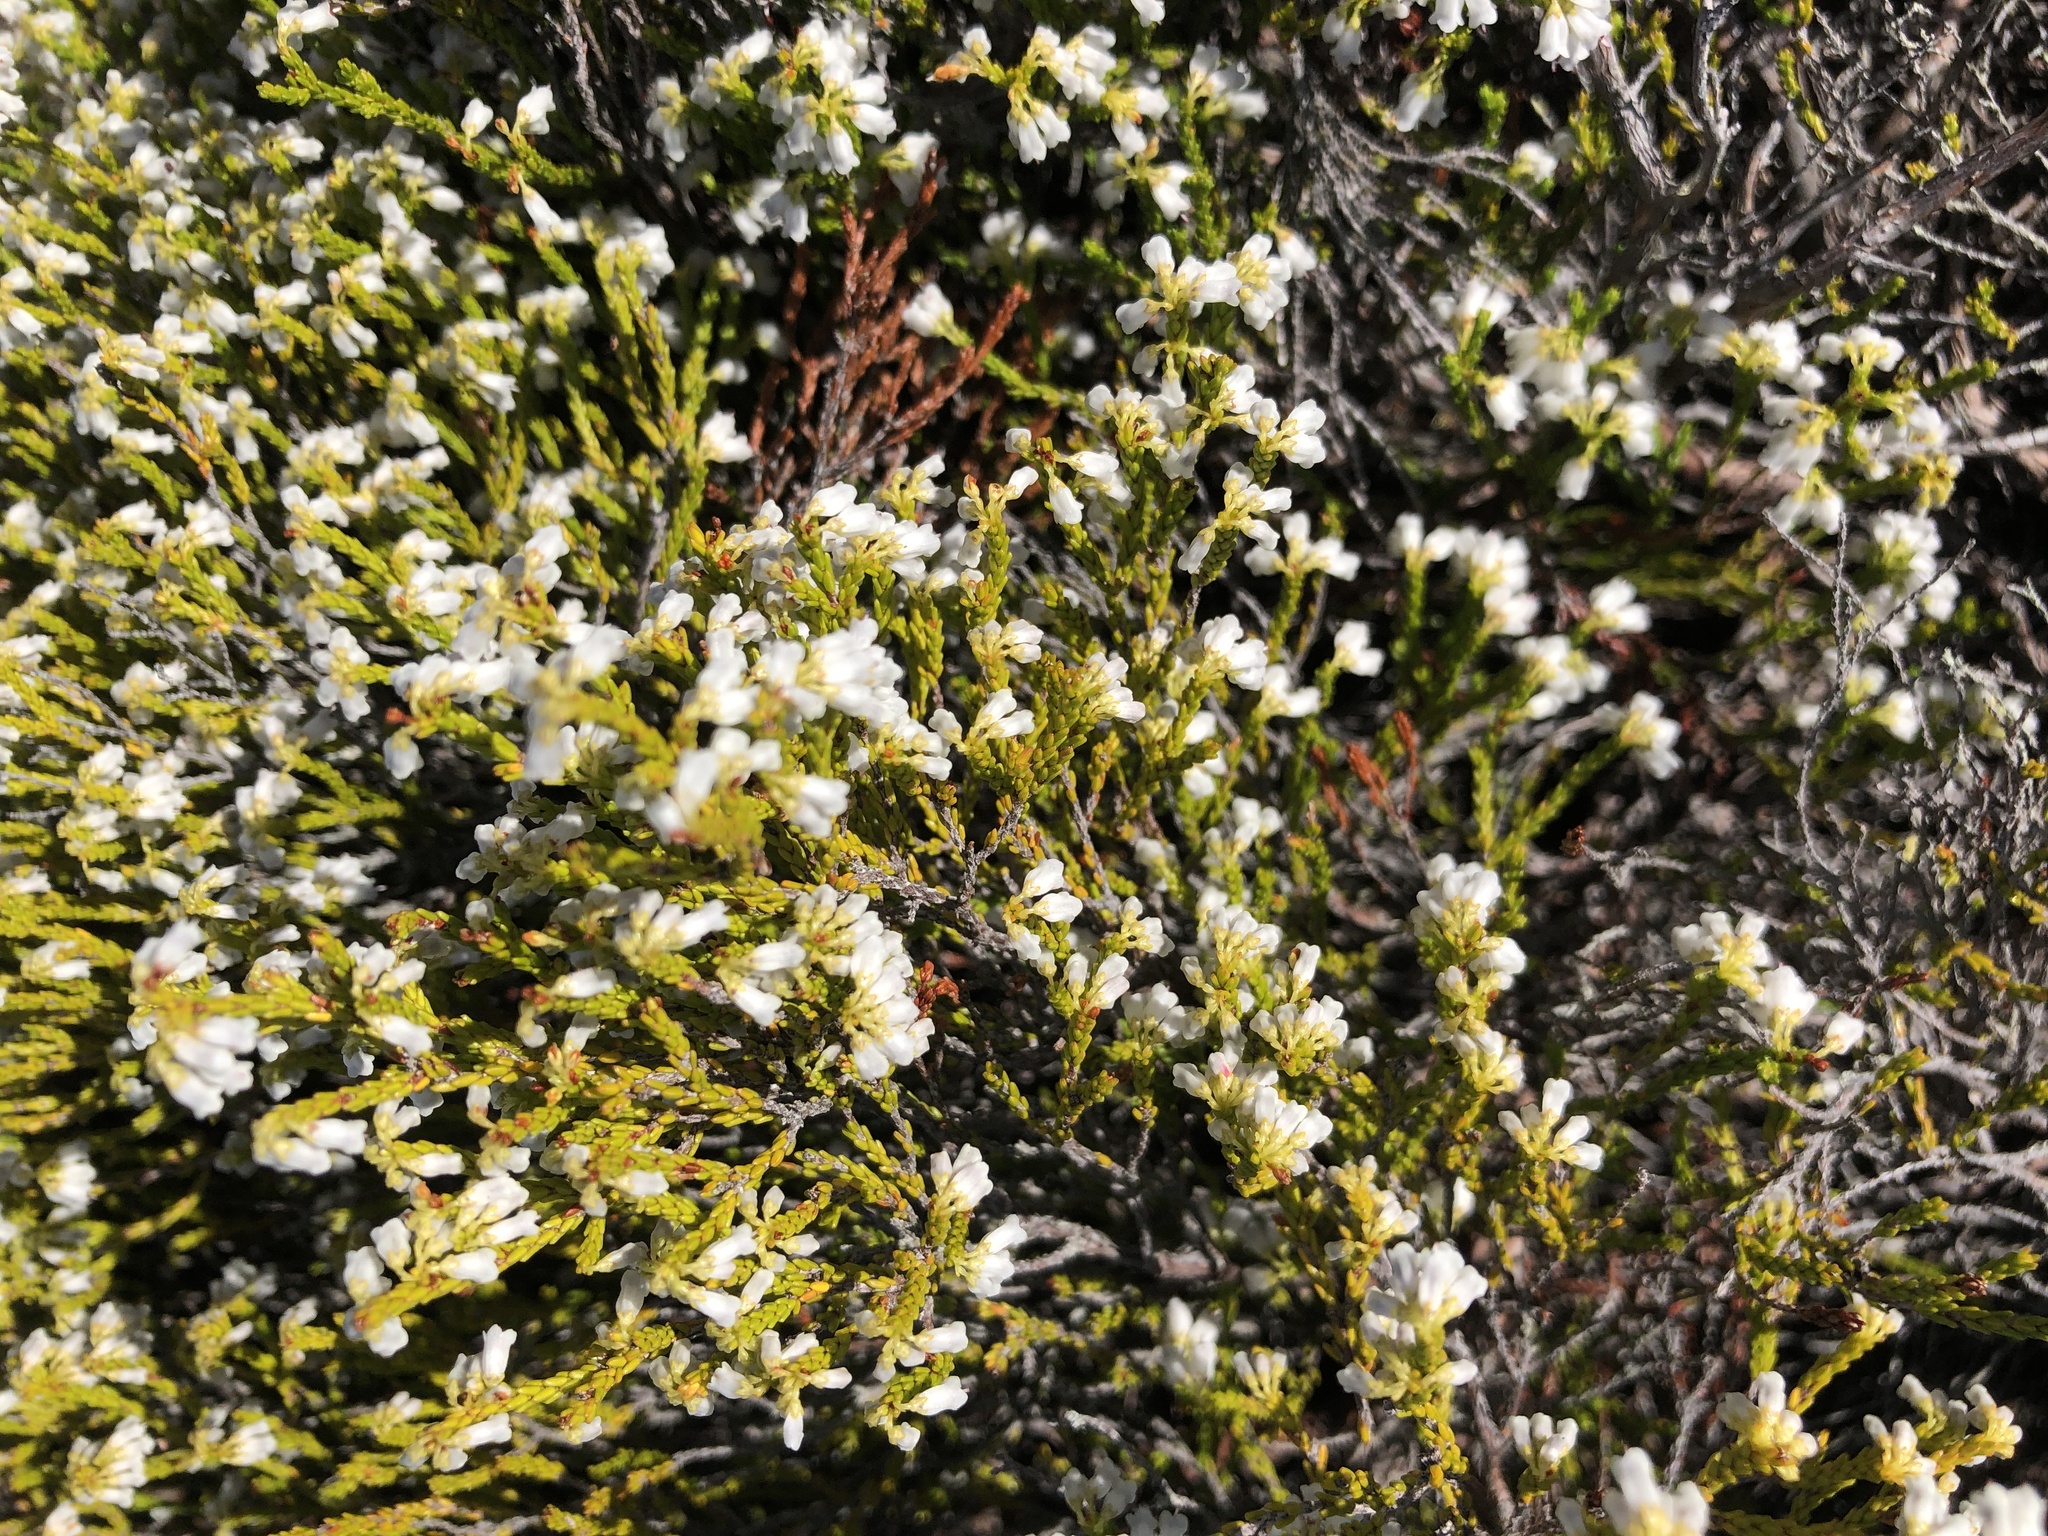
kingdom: Plantae
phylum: Tracheophyta
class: Magnoliopsida
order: Ericales
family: Ericaceae
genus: Erica
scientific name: Erica equisetifolia
